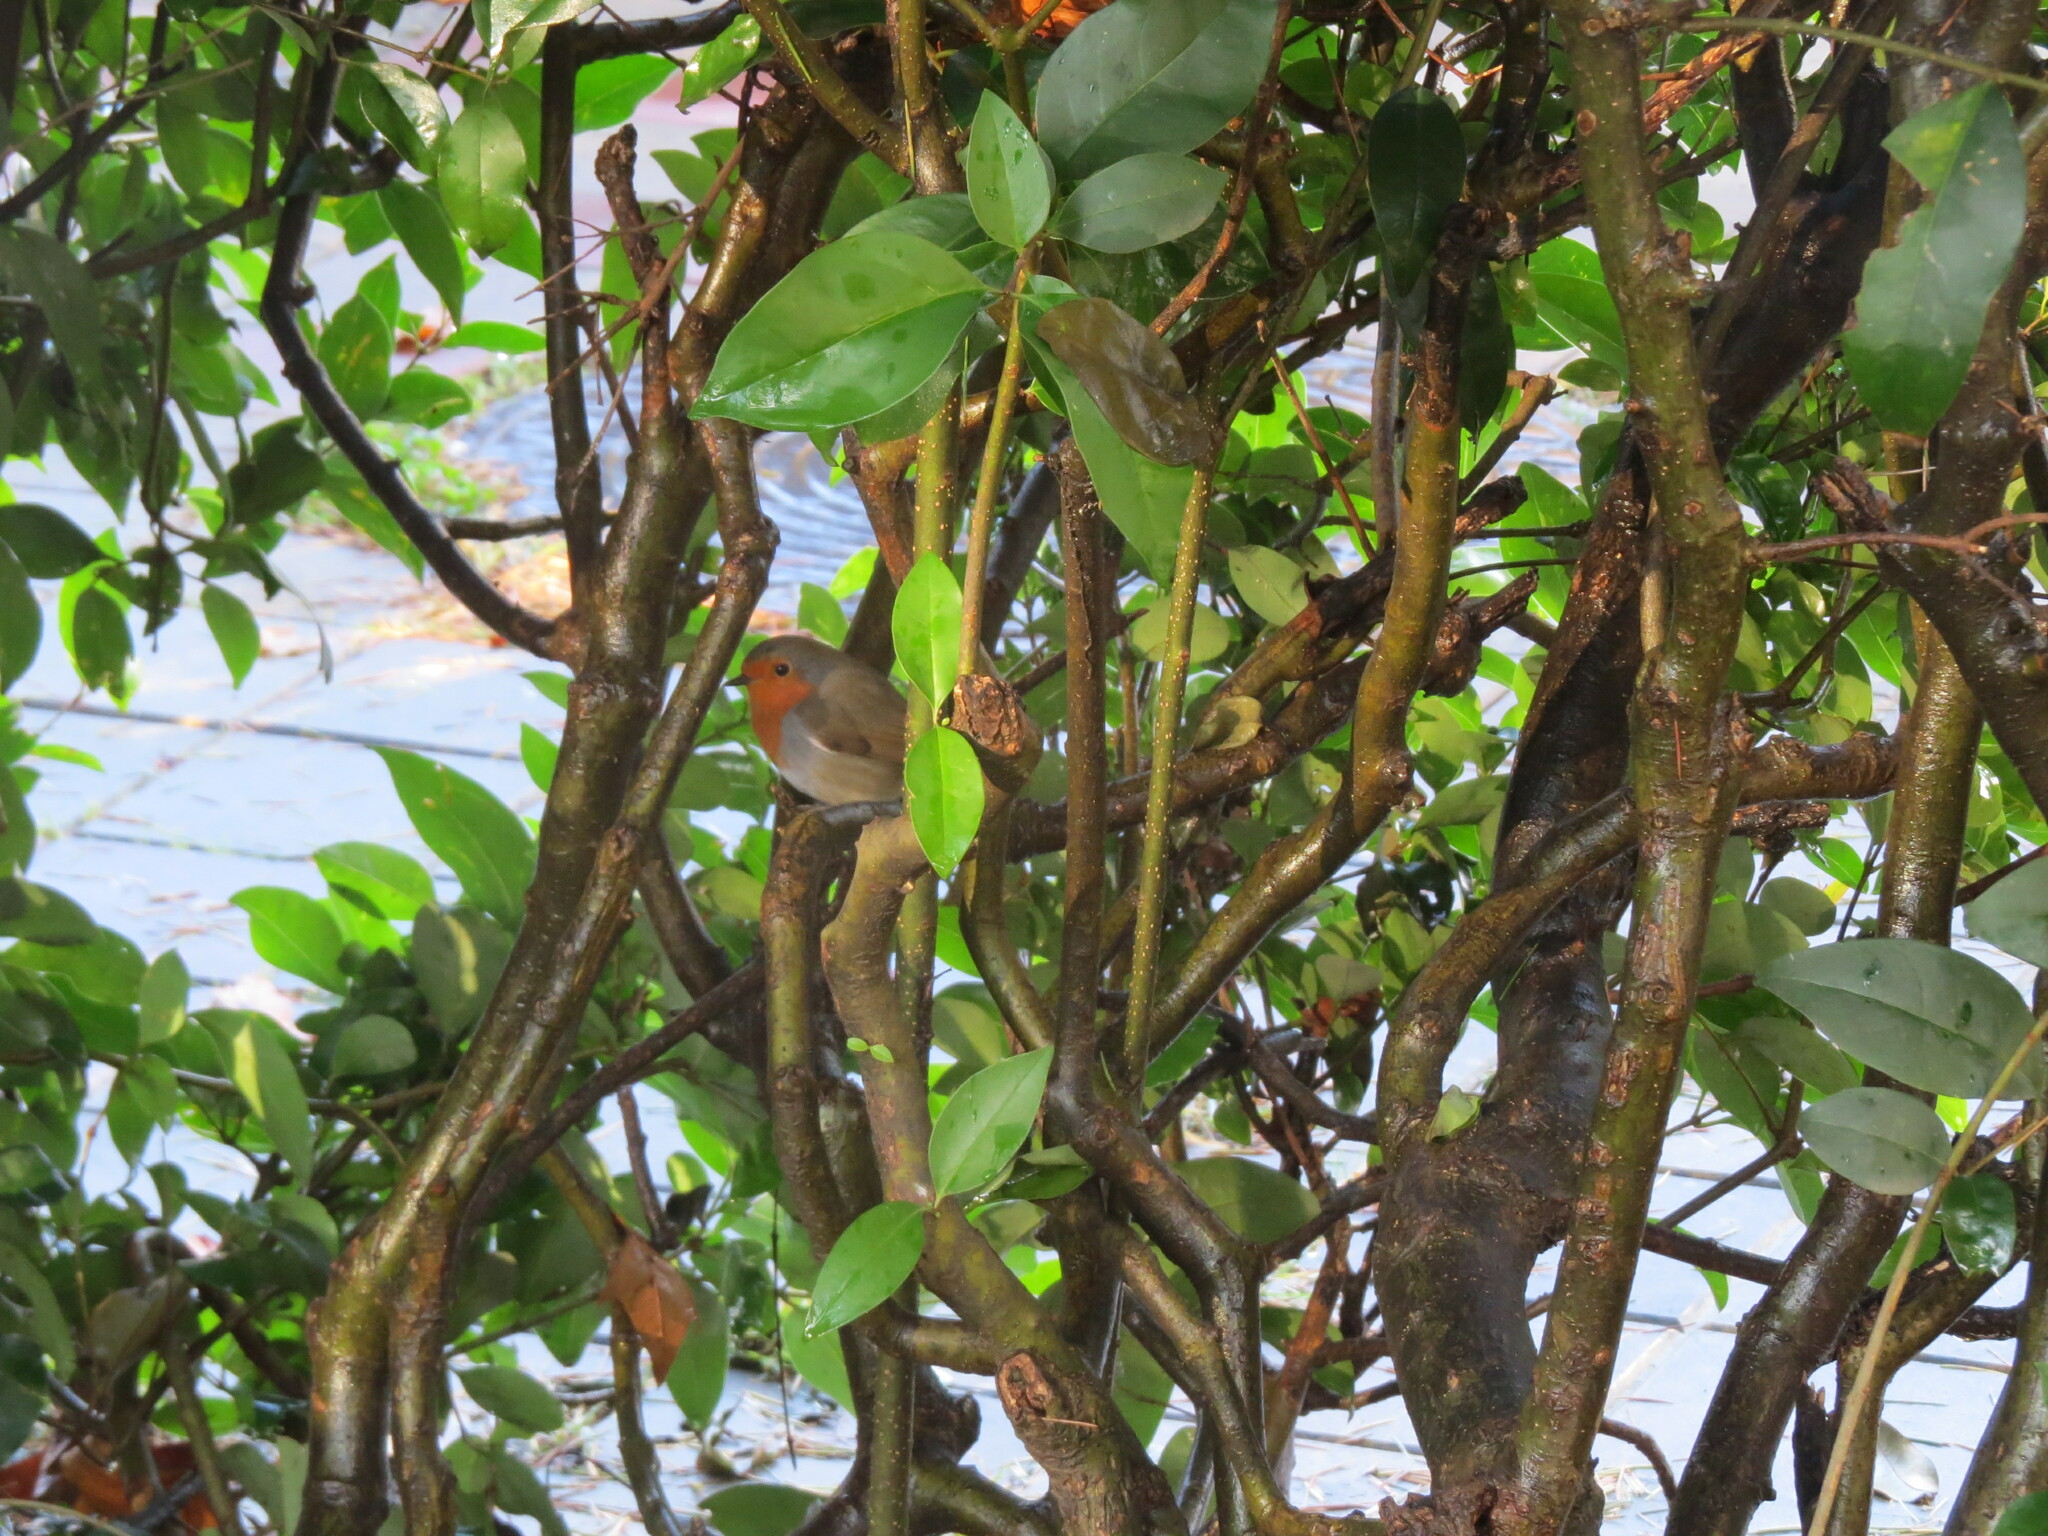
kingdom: Animalia
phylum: Chordata
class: Aves
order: Passeriformes
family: Muscicapidae
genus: Erithacus
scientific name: Erithacus rubecula
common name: European robin
